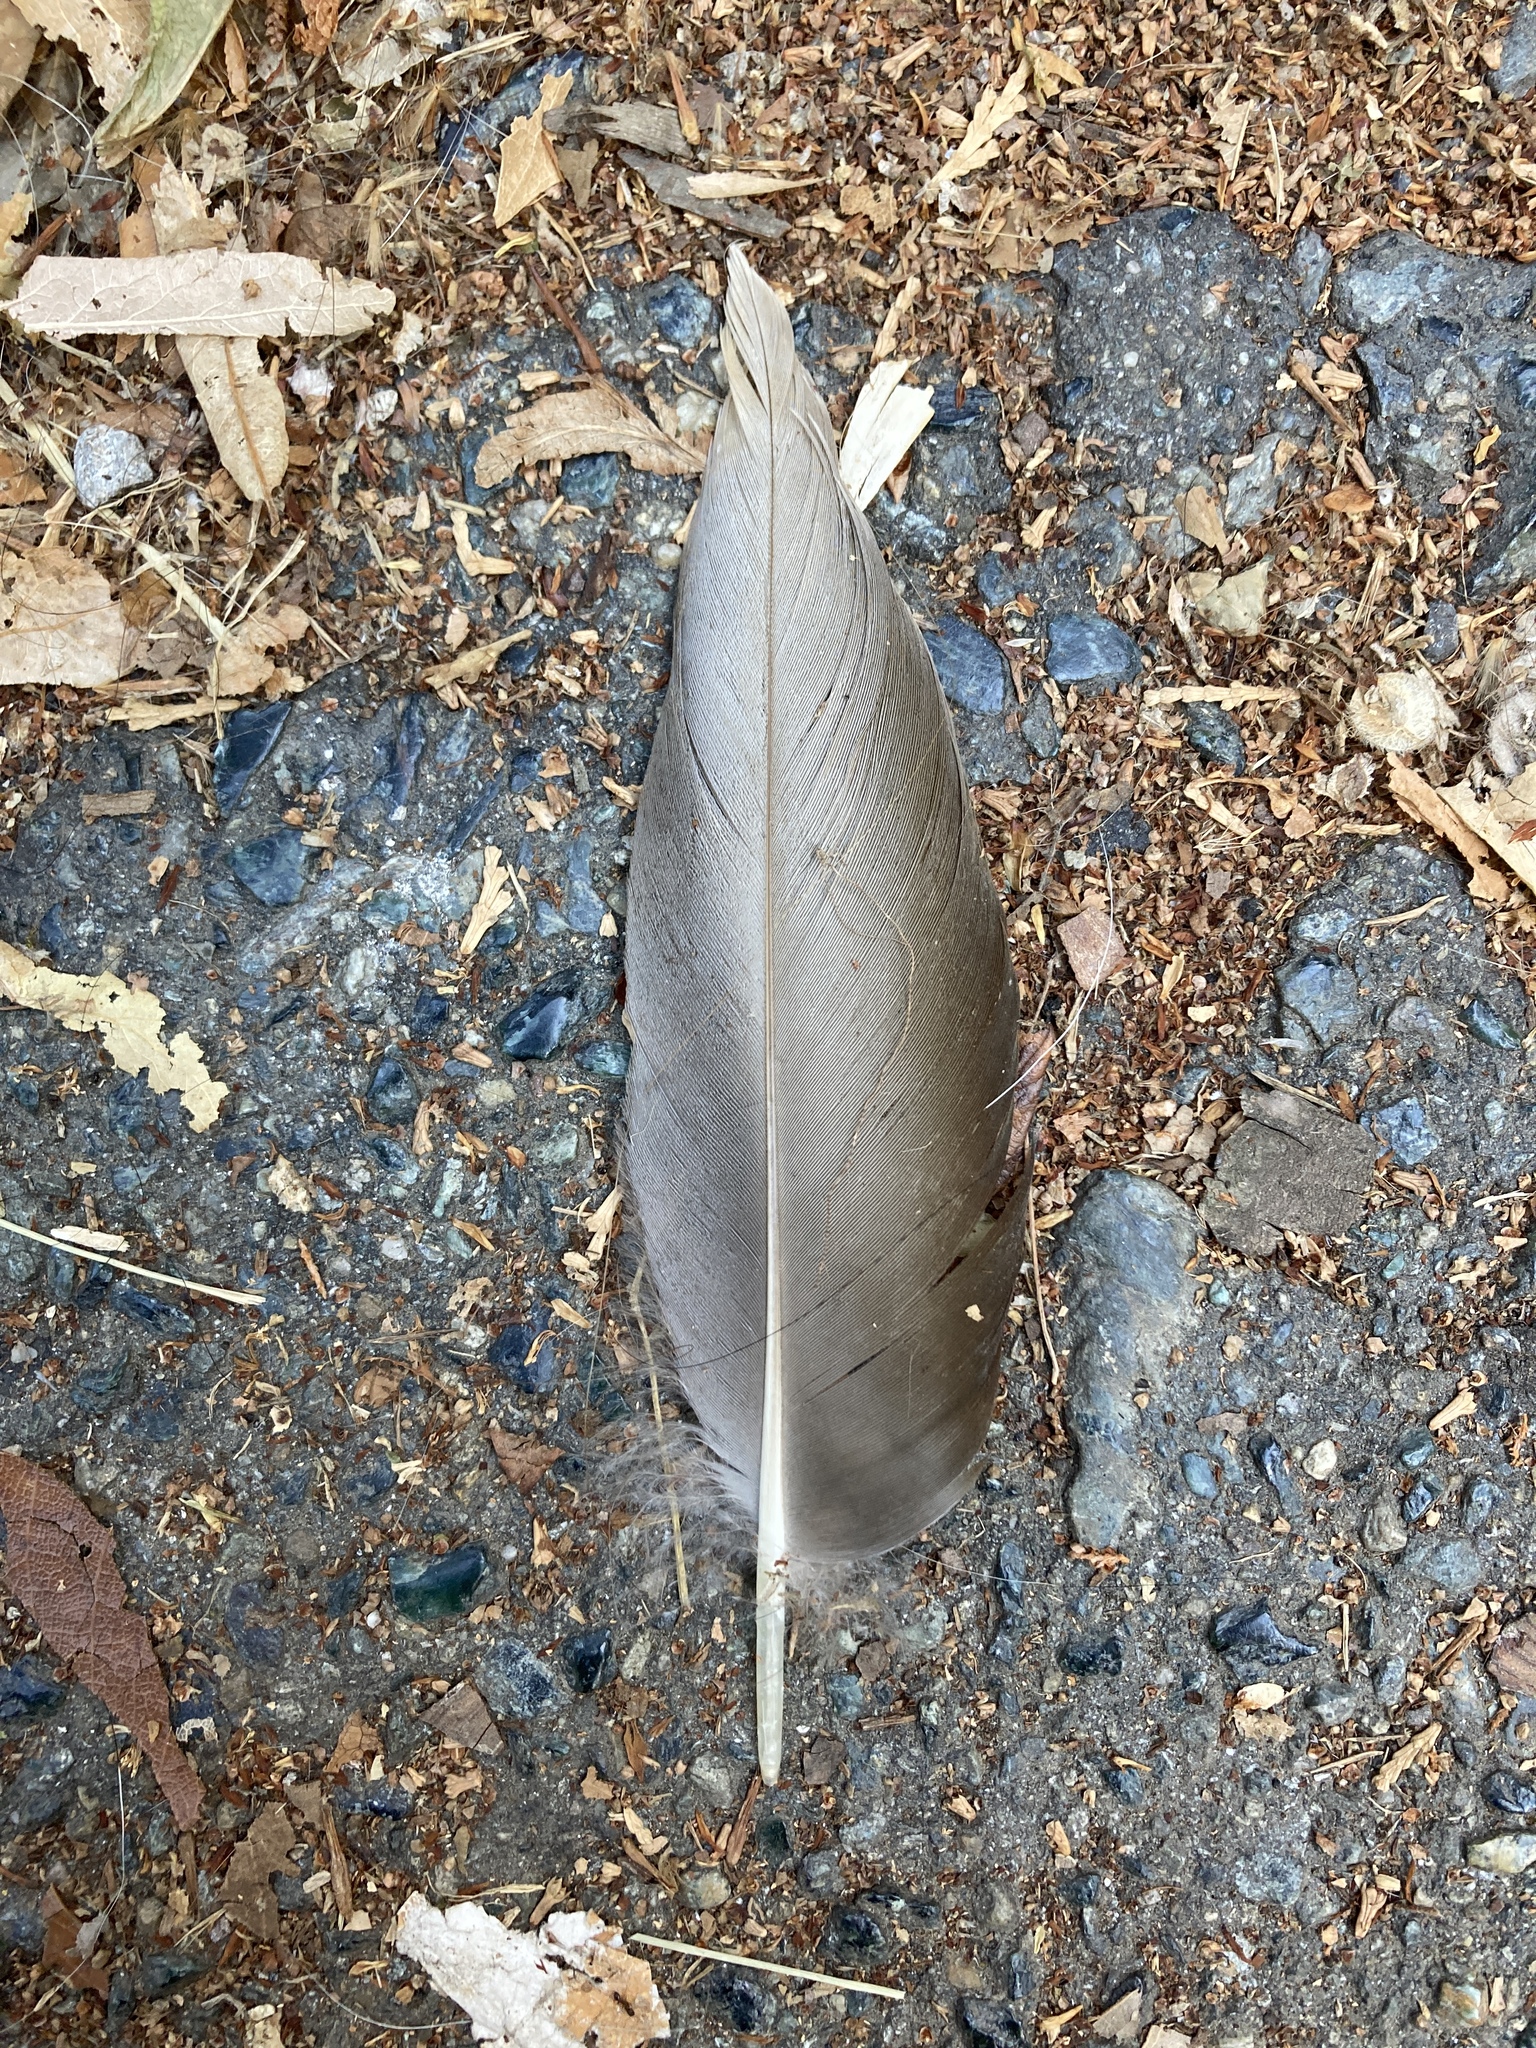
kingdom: Animalia
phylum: Chordata
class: Aves
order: Anseriformes
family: Anatidae
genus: Anas
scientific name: Anas platyrhynchos
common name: Mallard
